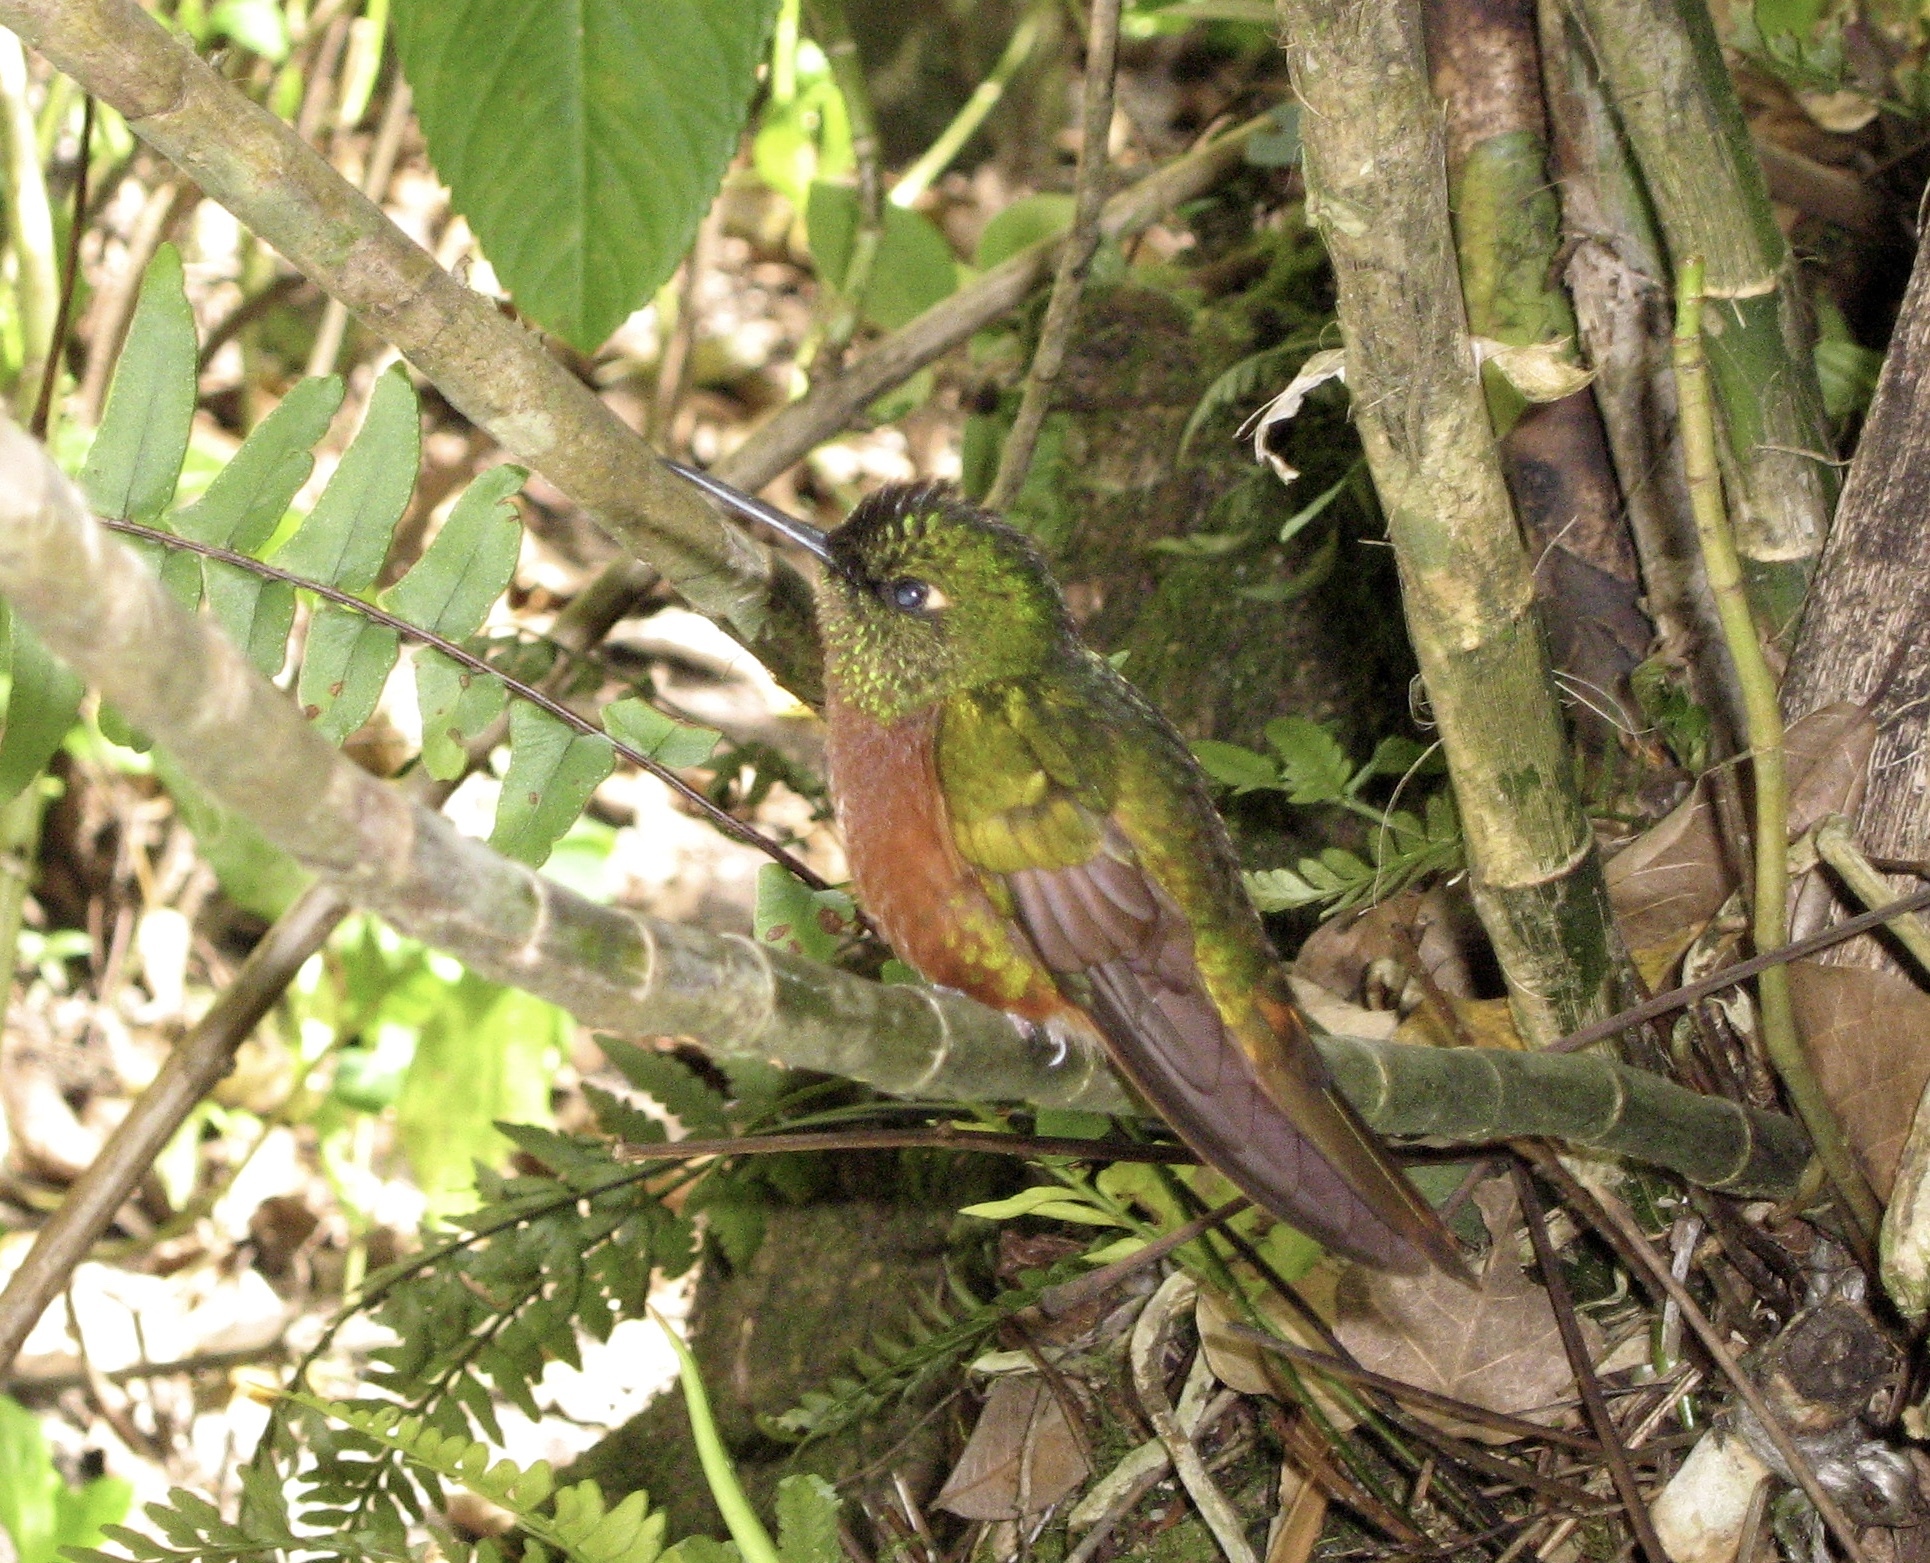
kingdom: Animalia
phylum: Chordata
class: Aves
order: Apodiformes
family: Trochilidae
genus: Boissonneaua
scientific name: Boissonneaua matthewsii
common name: Chestnut-breasted coronet
